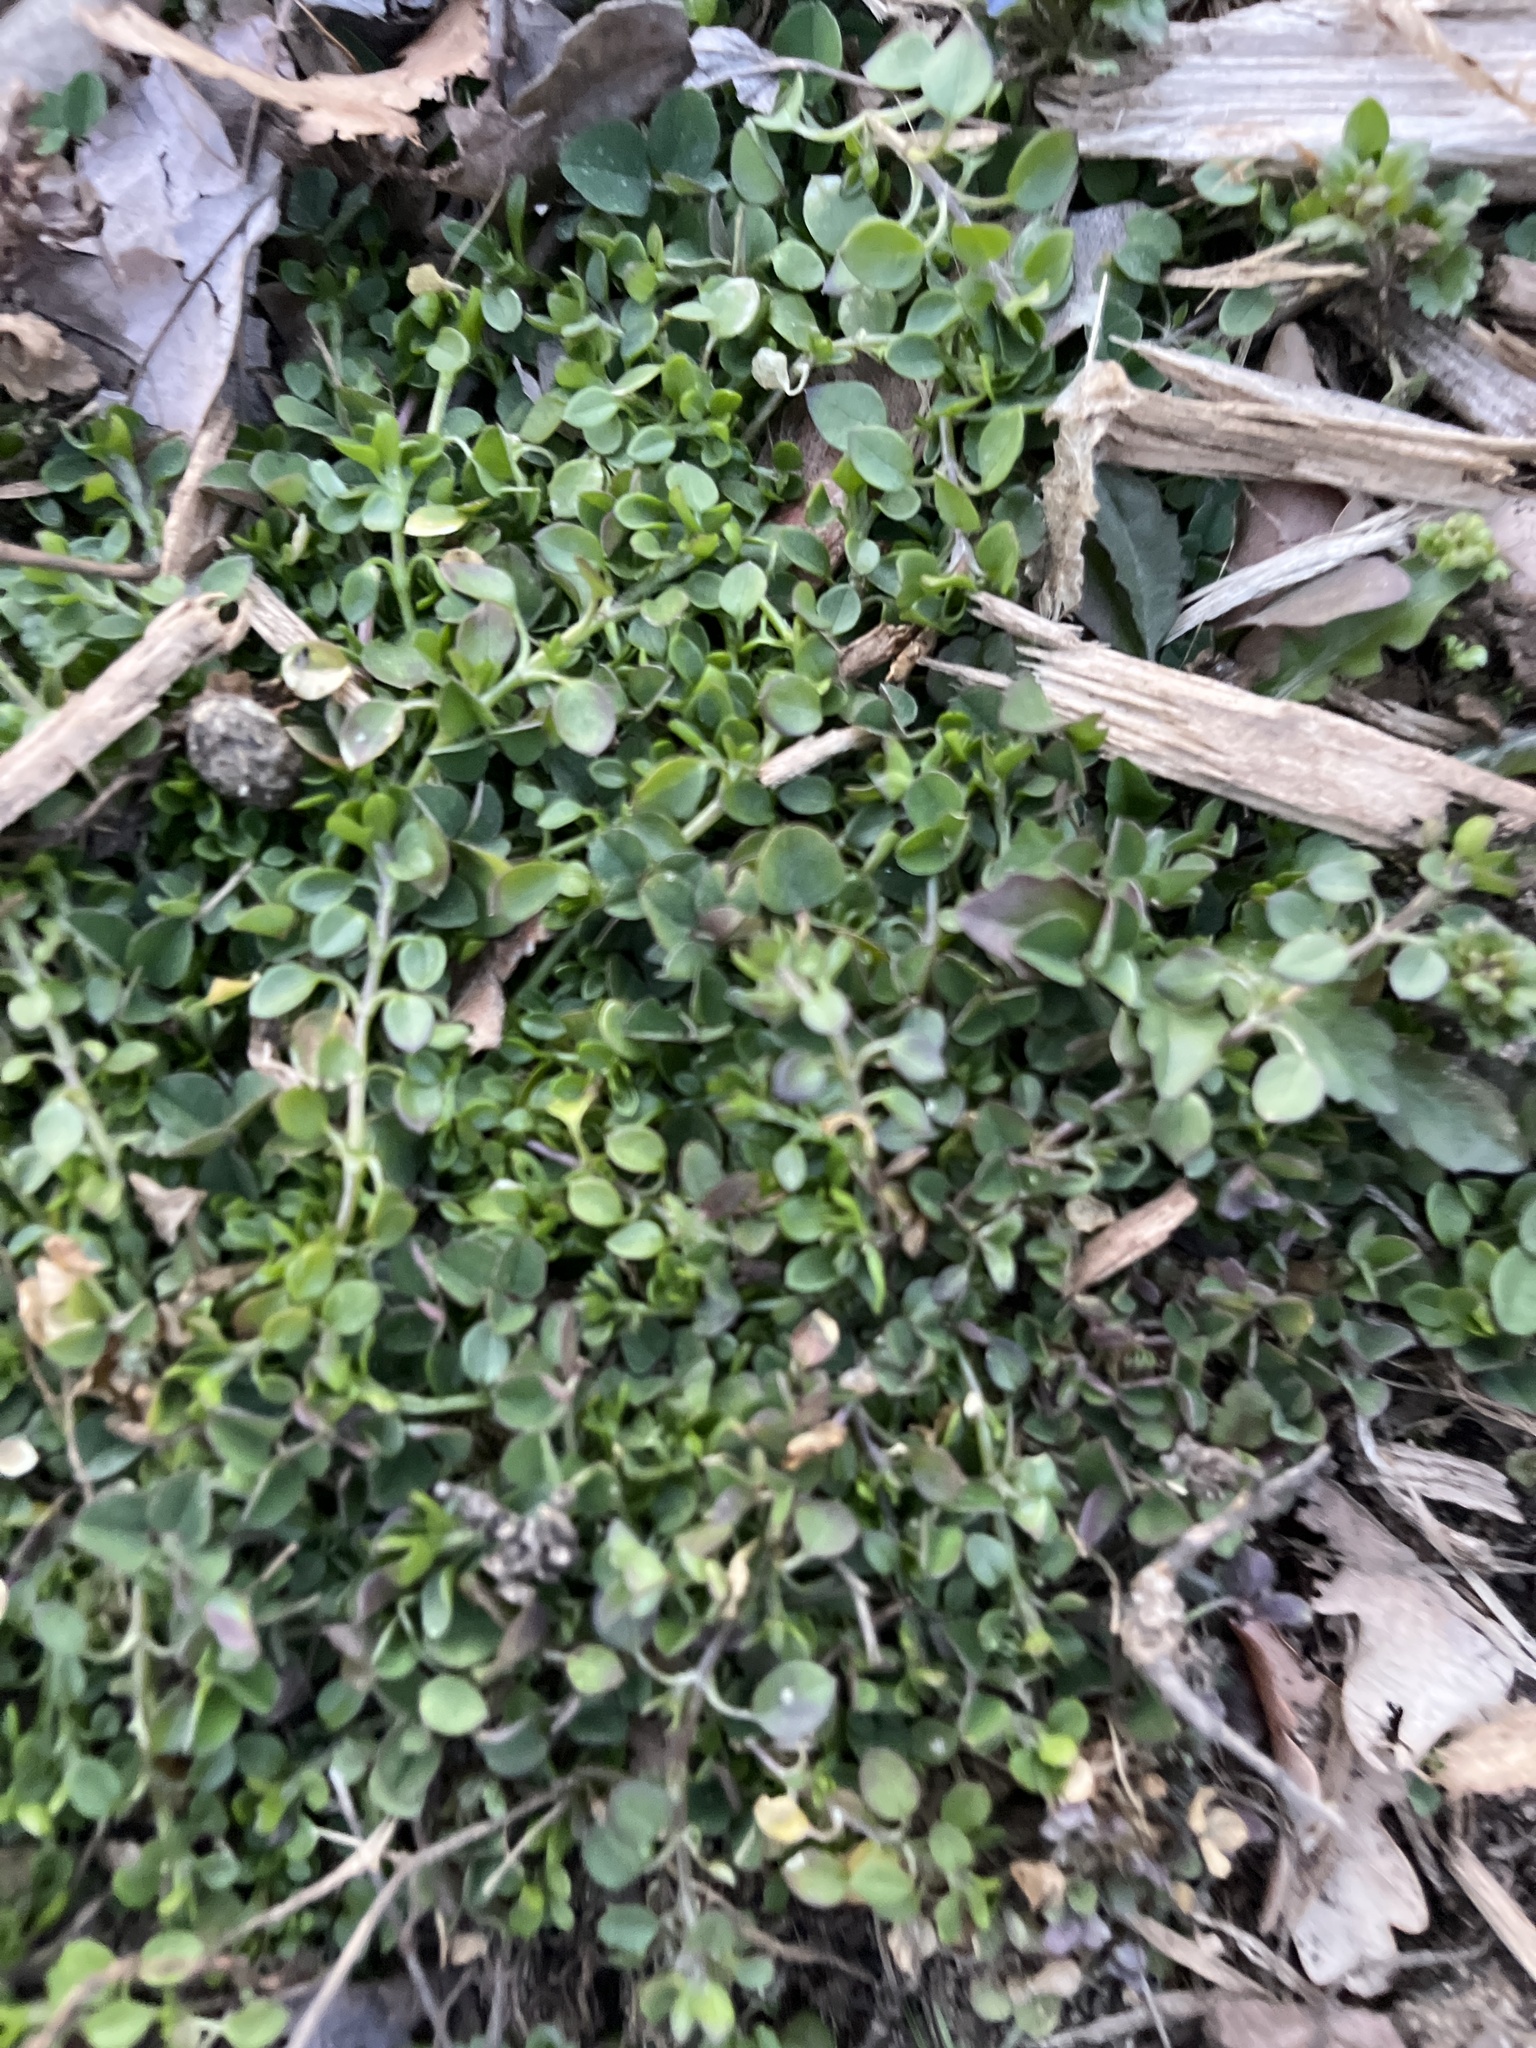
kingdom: Plantae
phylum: Tracheophyta
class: Magnoliopsida
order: Caryophyllales
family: Caryophyllaceae
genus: Stellaria
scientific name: Stellaria media
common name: Common chickweed
